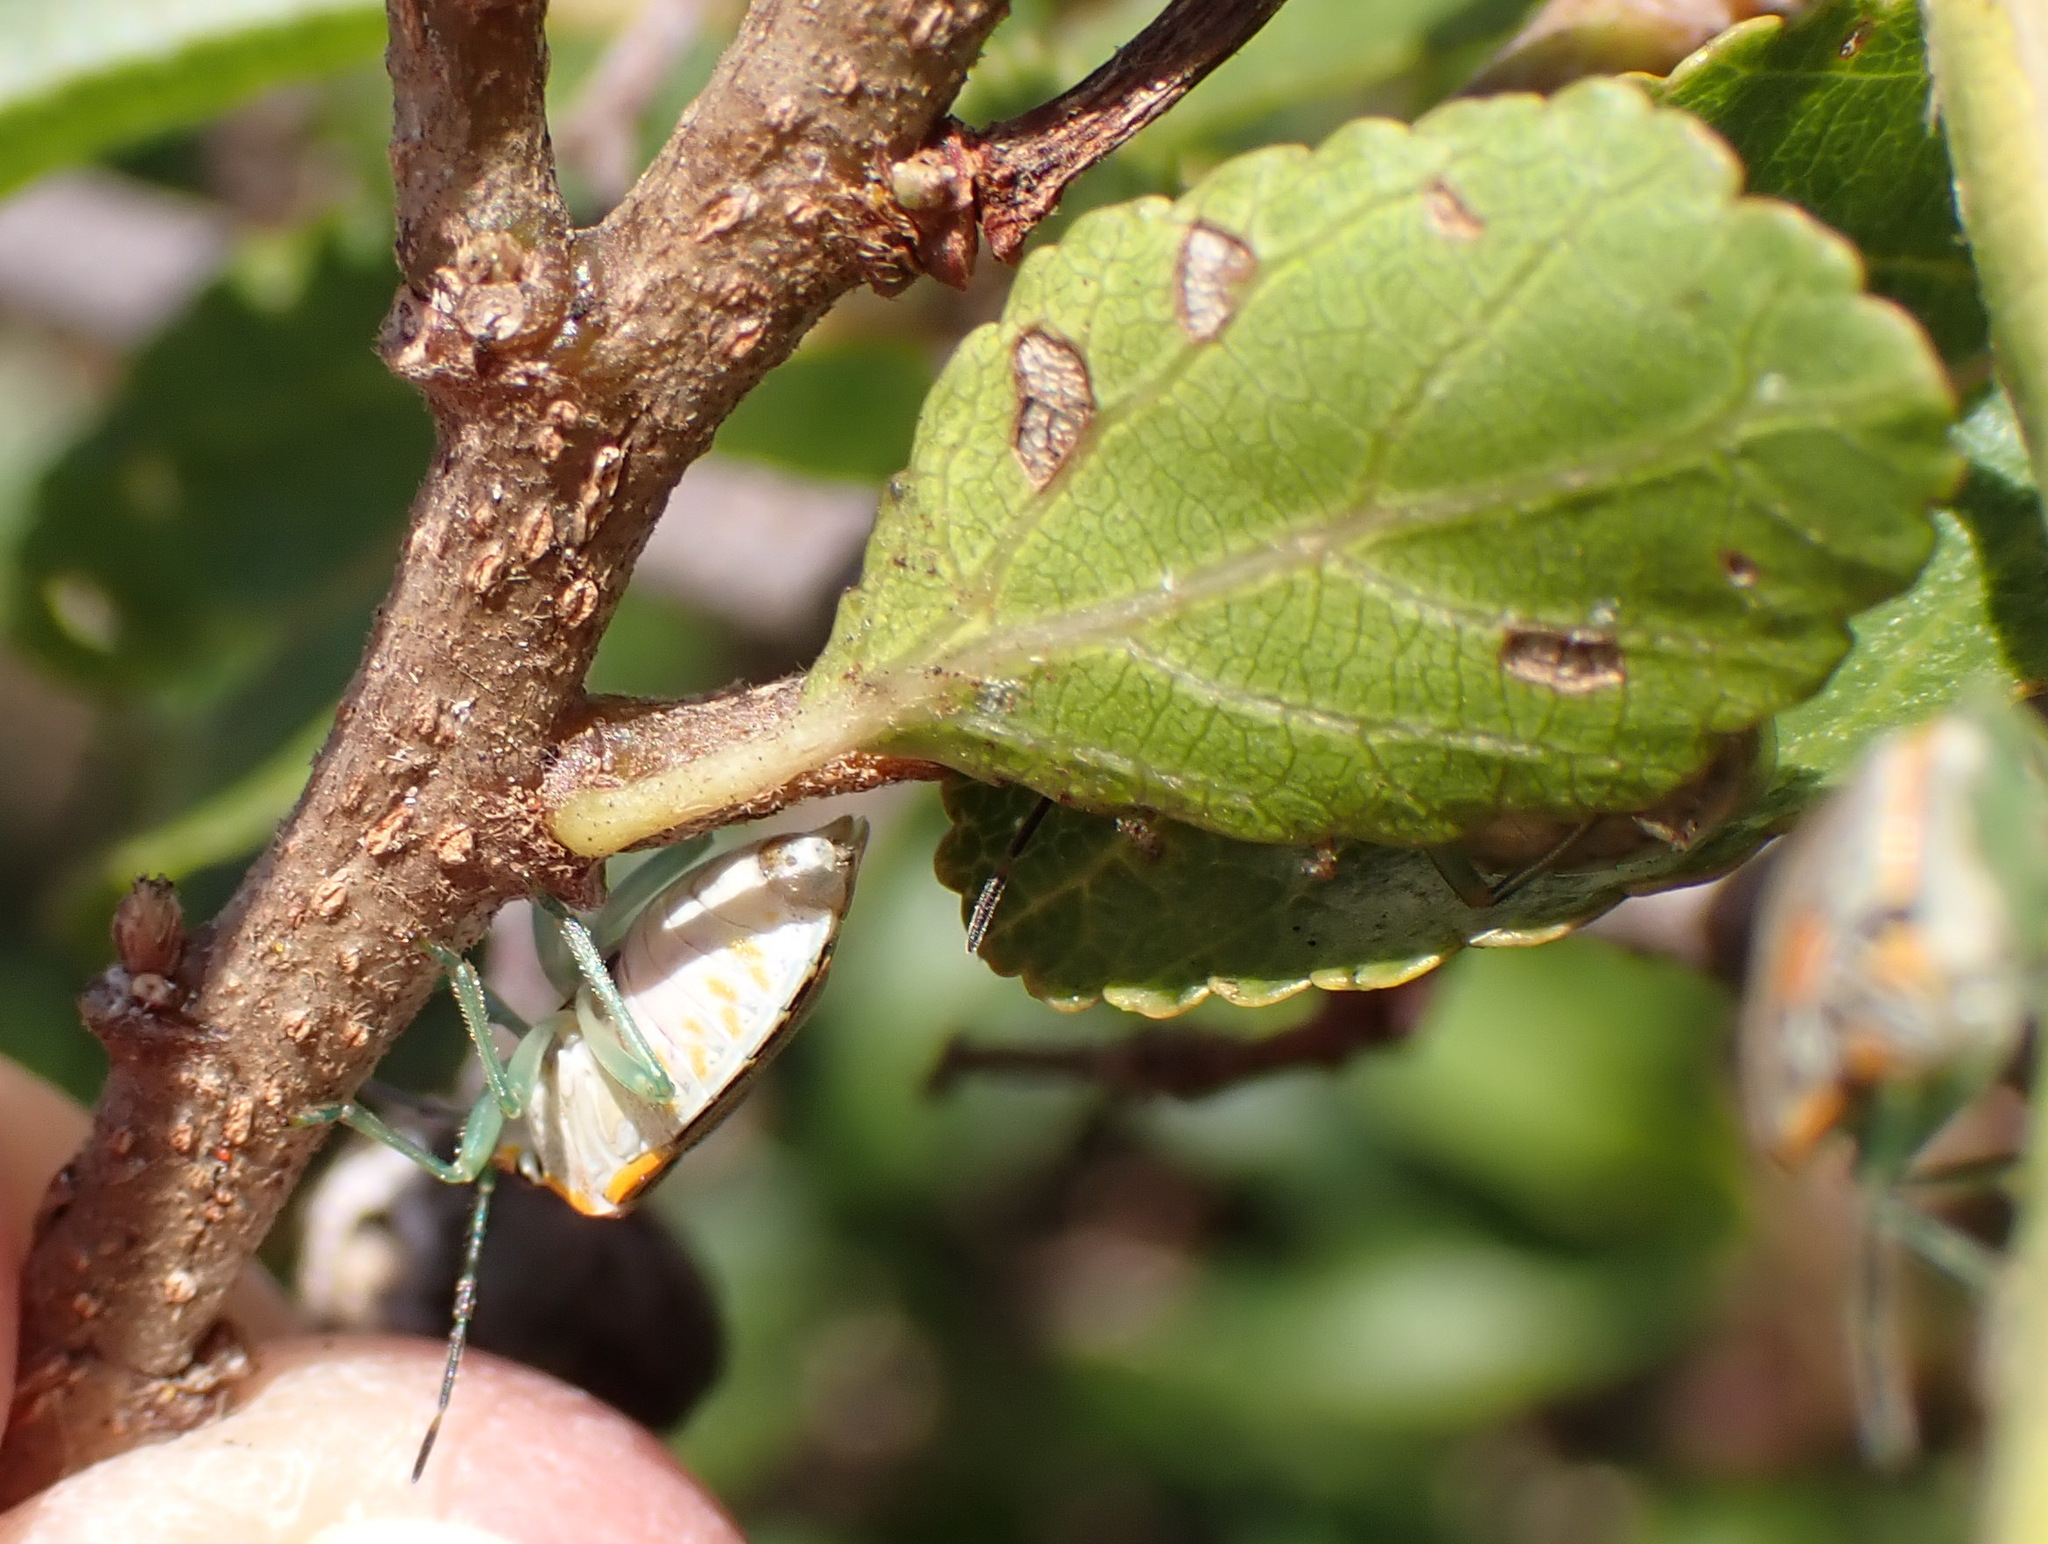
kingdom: Plantae
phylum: Tracheophyta
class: Magnoliopsida
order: Malvales
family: Malvaceae
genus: Grewia
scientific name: Grewia occidentalis
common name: Crossberry
